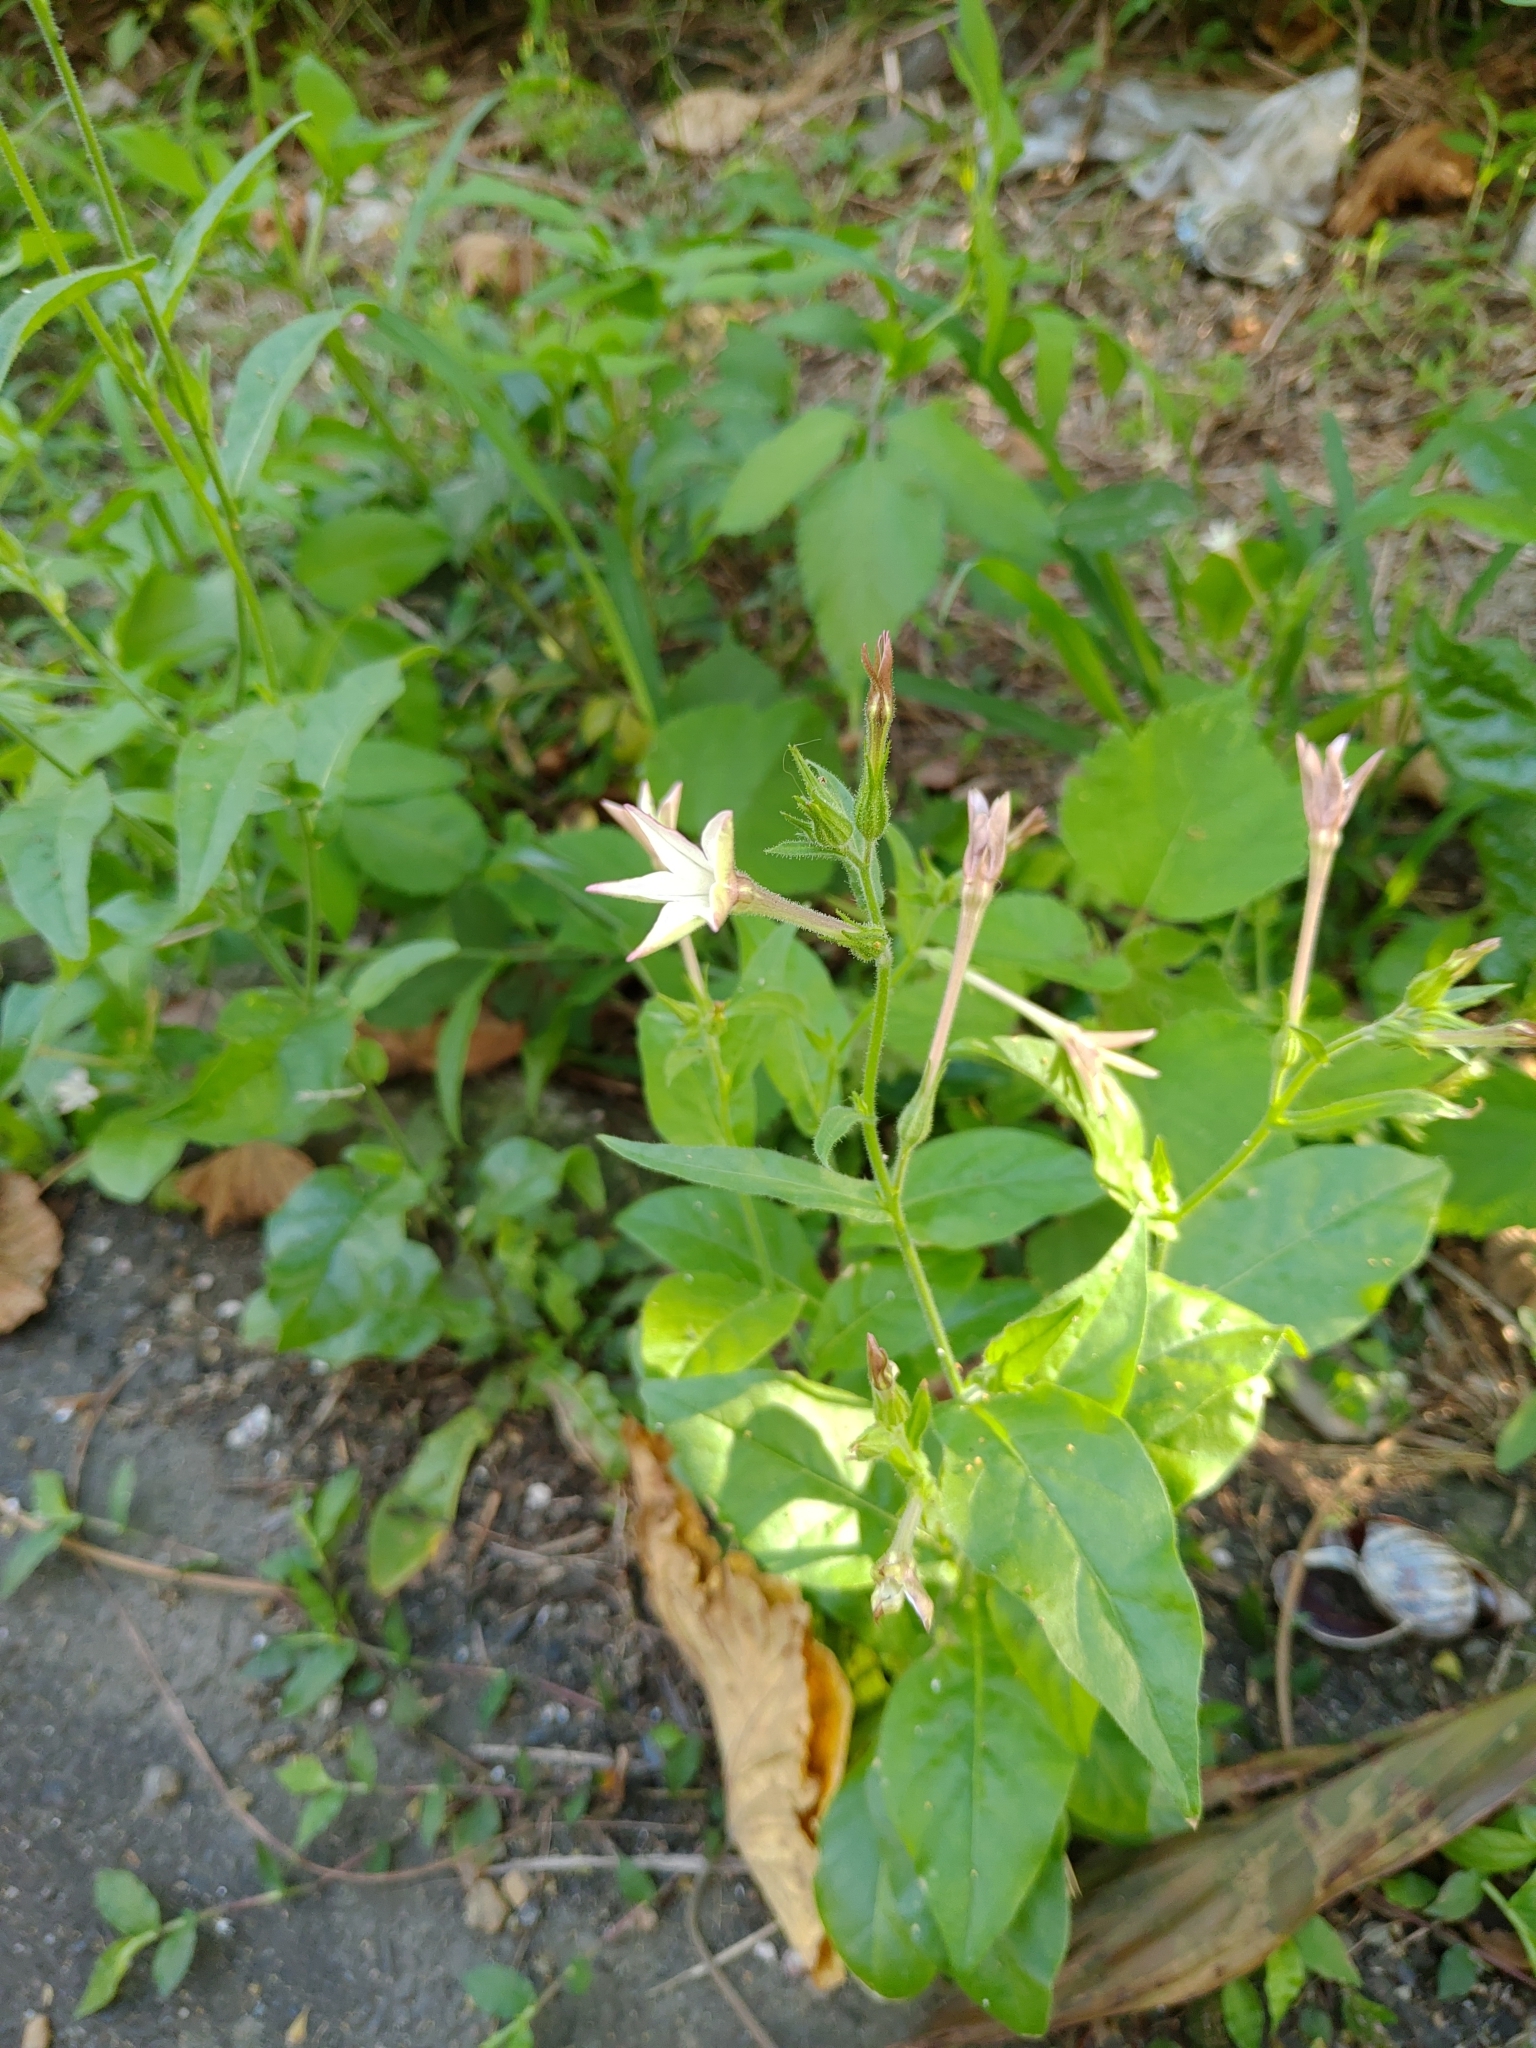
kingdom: Plantae
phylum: Tracheophyta
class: Magnoliopsida
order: Solanales
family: Solanaceae
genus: Nicotiana
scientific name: Nicotiana plumbaginifolia
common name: Tex-mex tobacco
